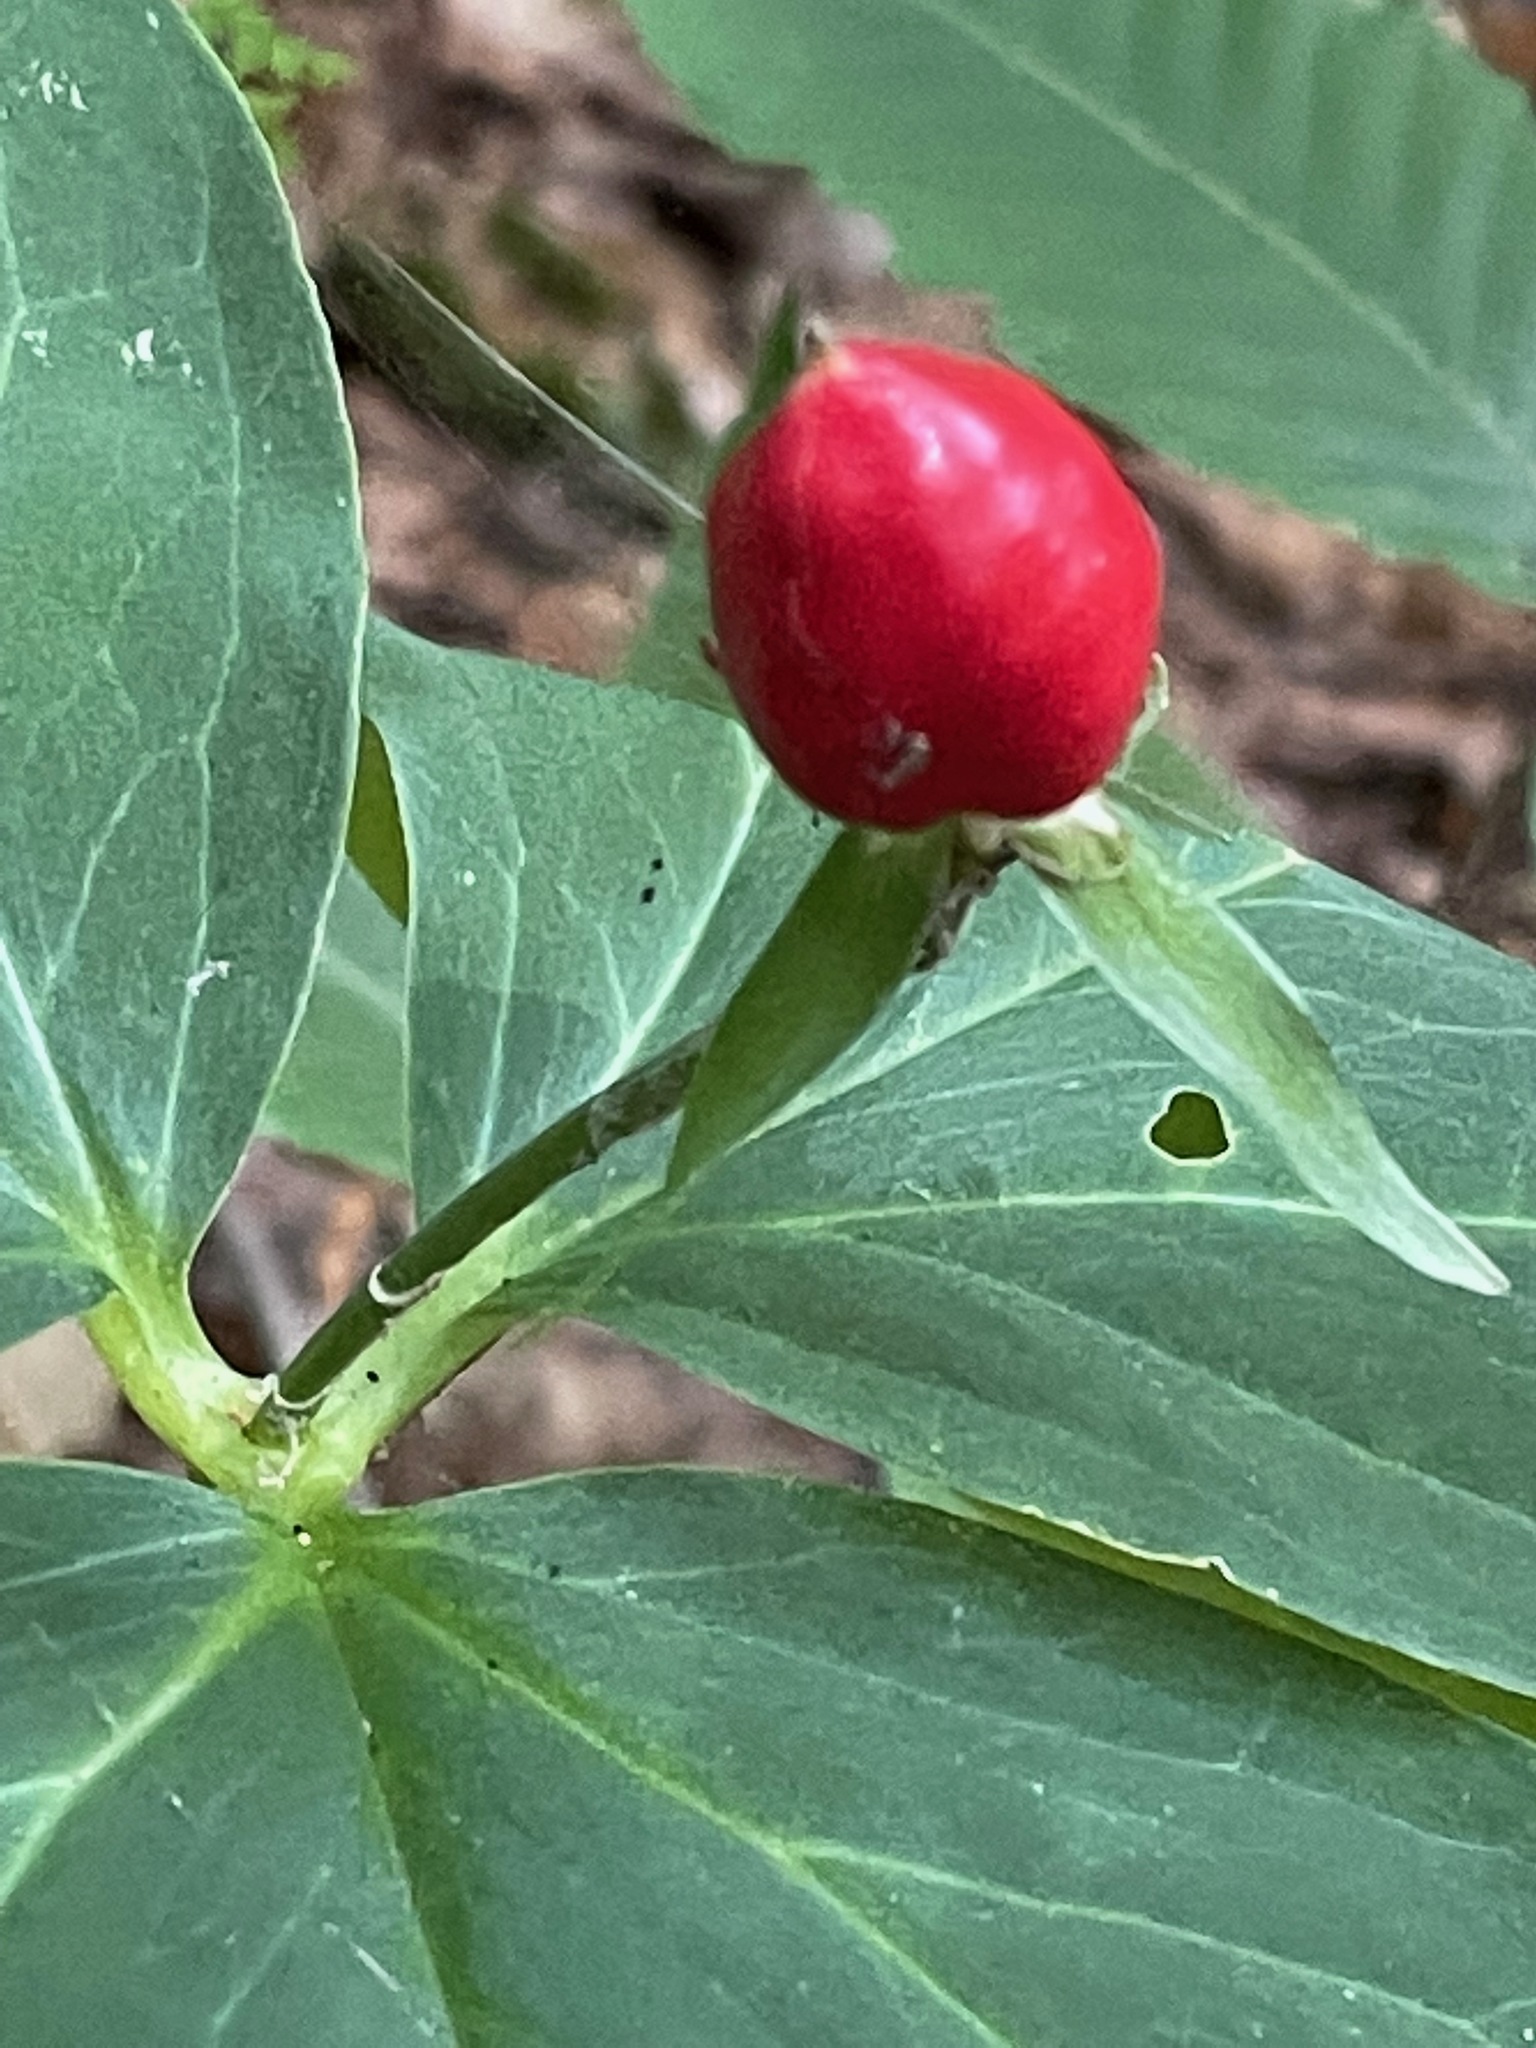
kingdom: Plantae
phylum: Tracheophyta
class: Liliopsida
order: Liliales
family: Melanthiaceae
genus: Trillium
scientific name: Trillium undulatum
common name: Paint trillium
